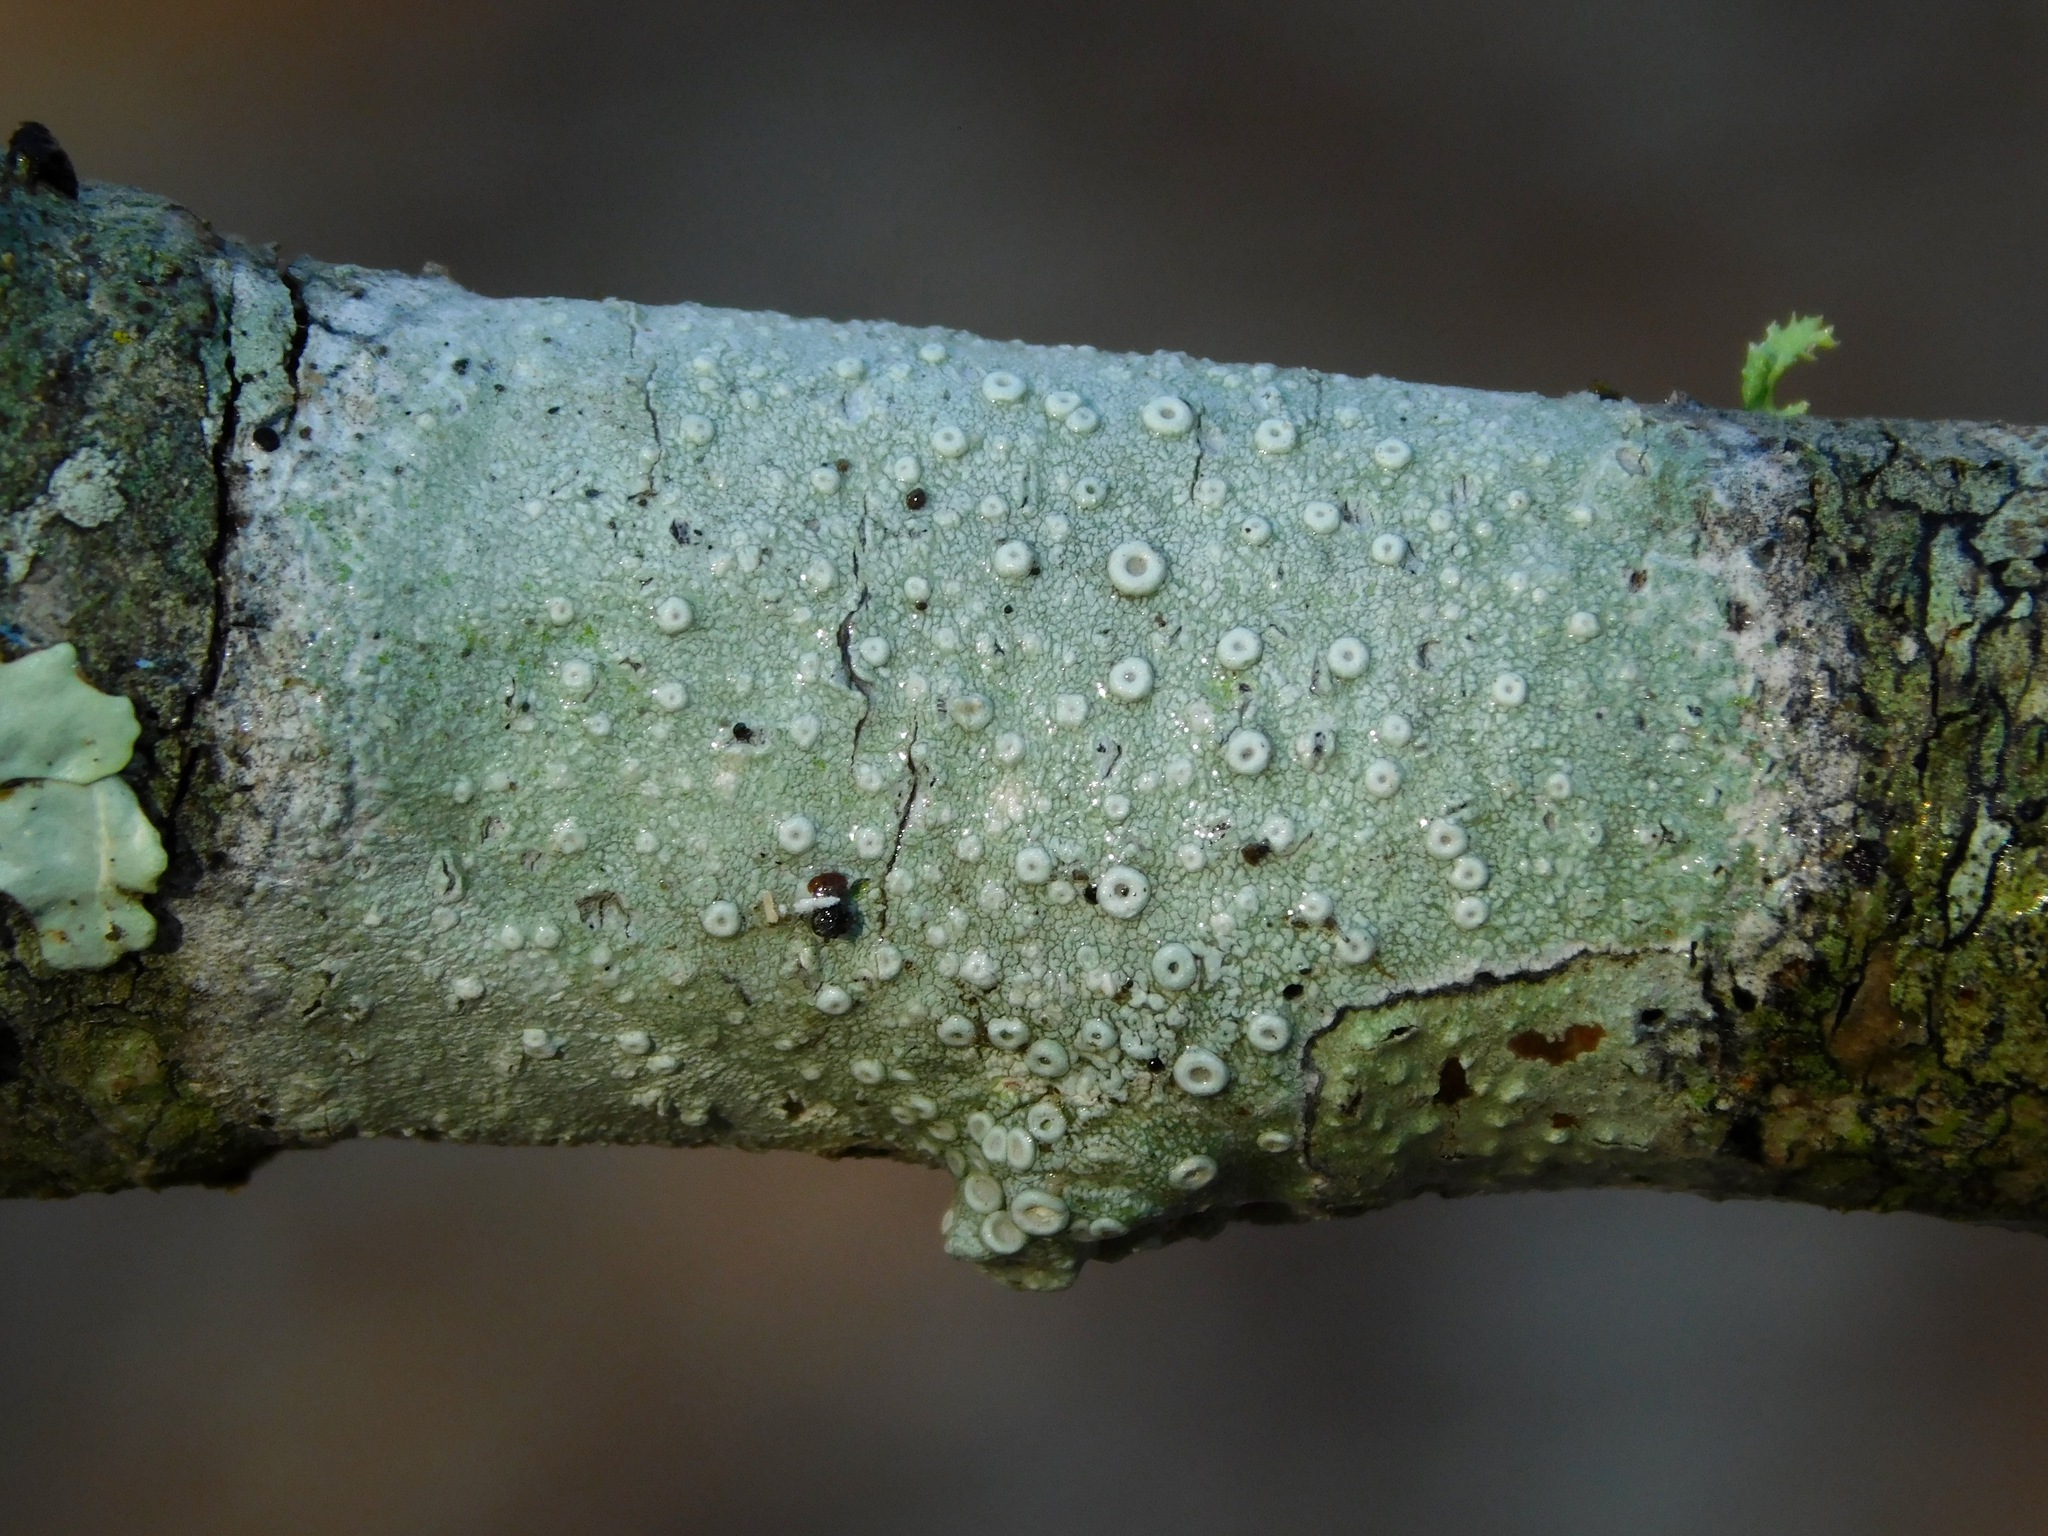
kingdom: Fungi
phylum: Ascomycota
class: Lecanoromycetes
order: Pertusariales
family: Ochrolechiaceae
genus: Ochrolechia
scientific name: Ochrolechia africana
